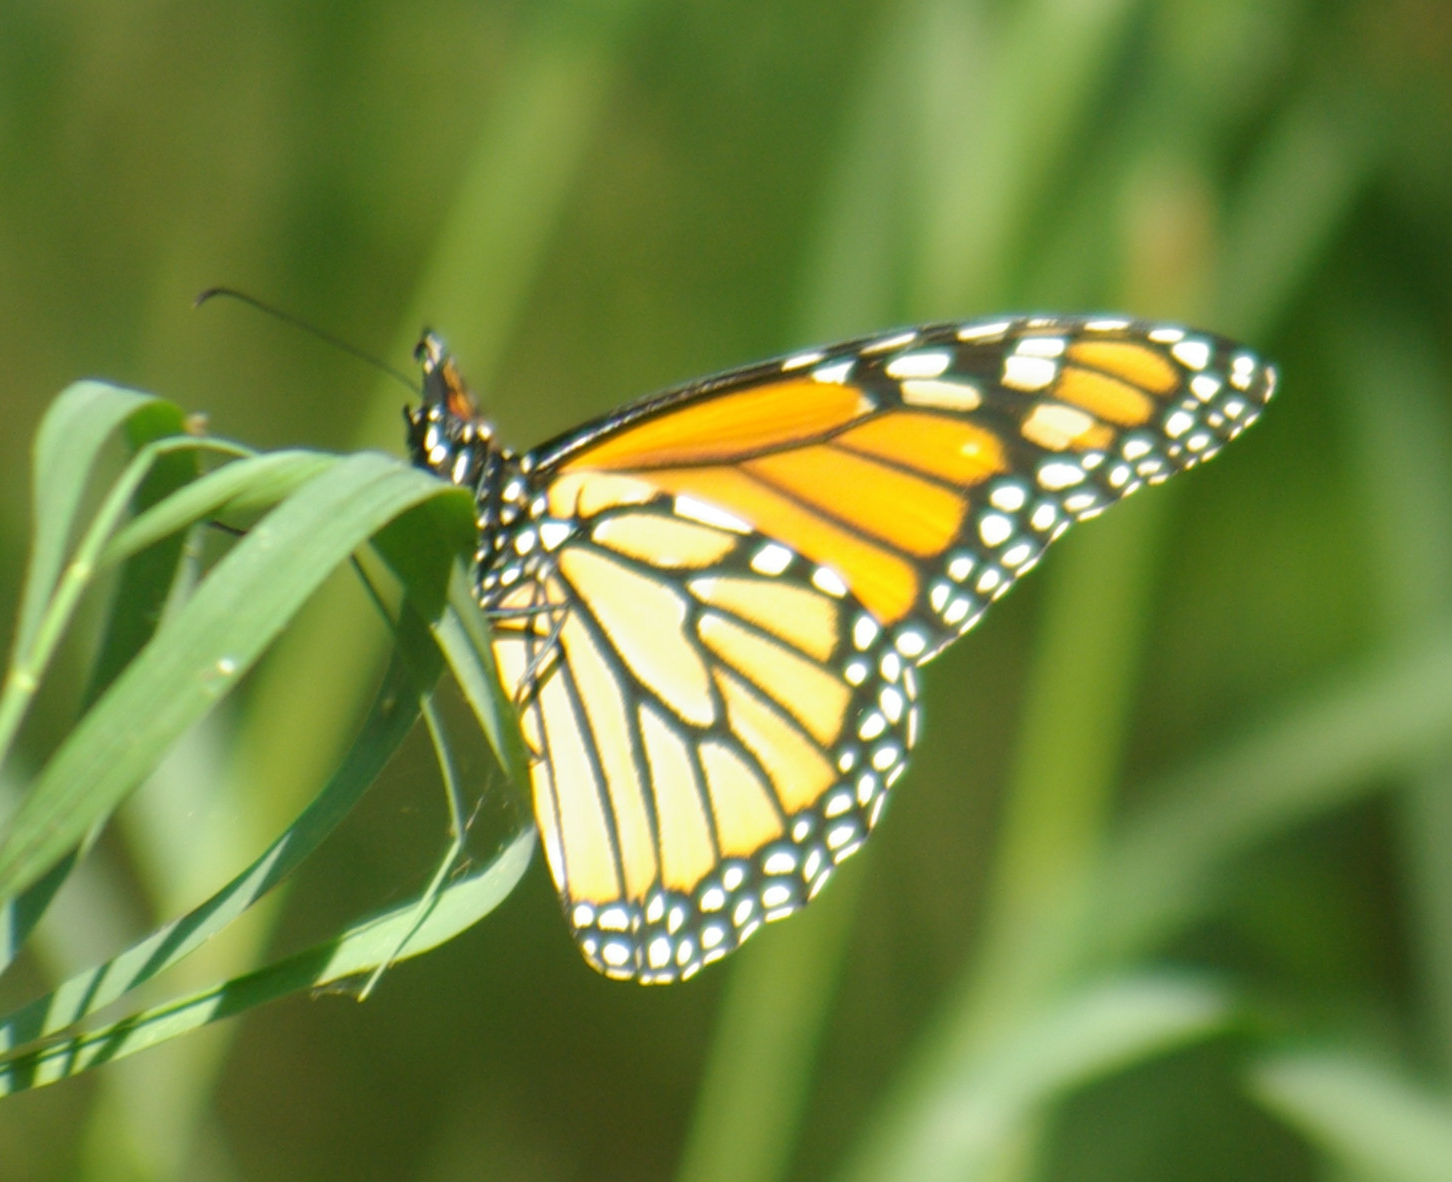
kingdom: Animalia
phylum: Arthropoda
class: Insecta
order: Lepidoptera
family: Nymphalidae
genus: Danaus
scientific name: Danaus plexippus
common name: Monarch
